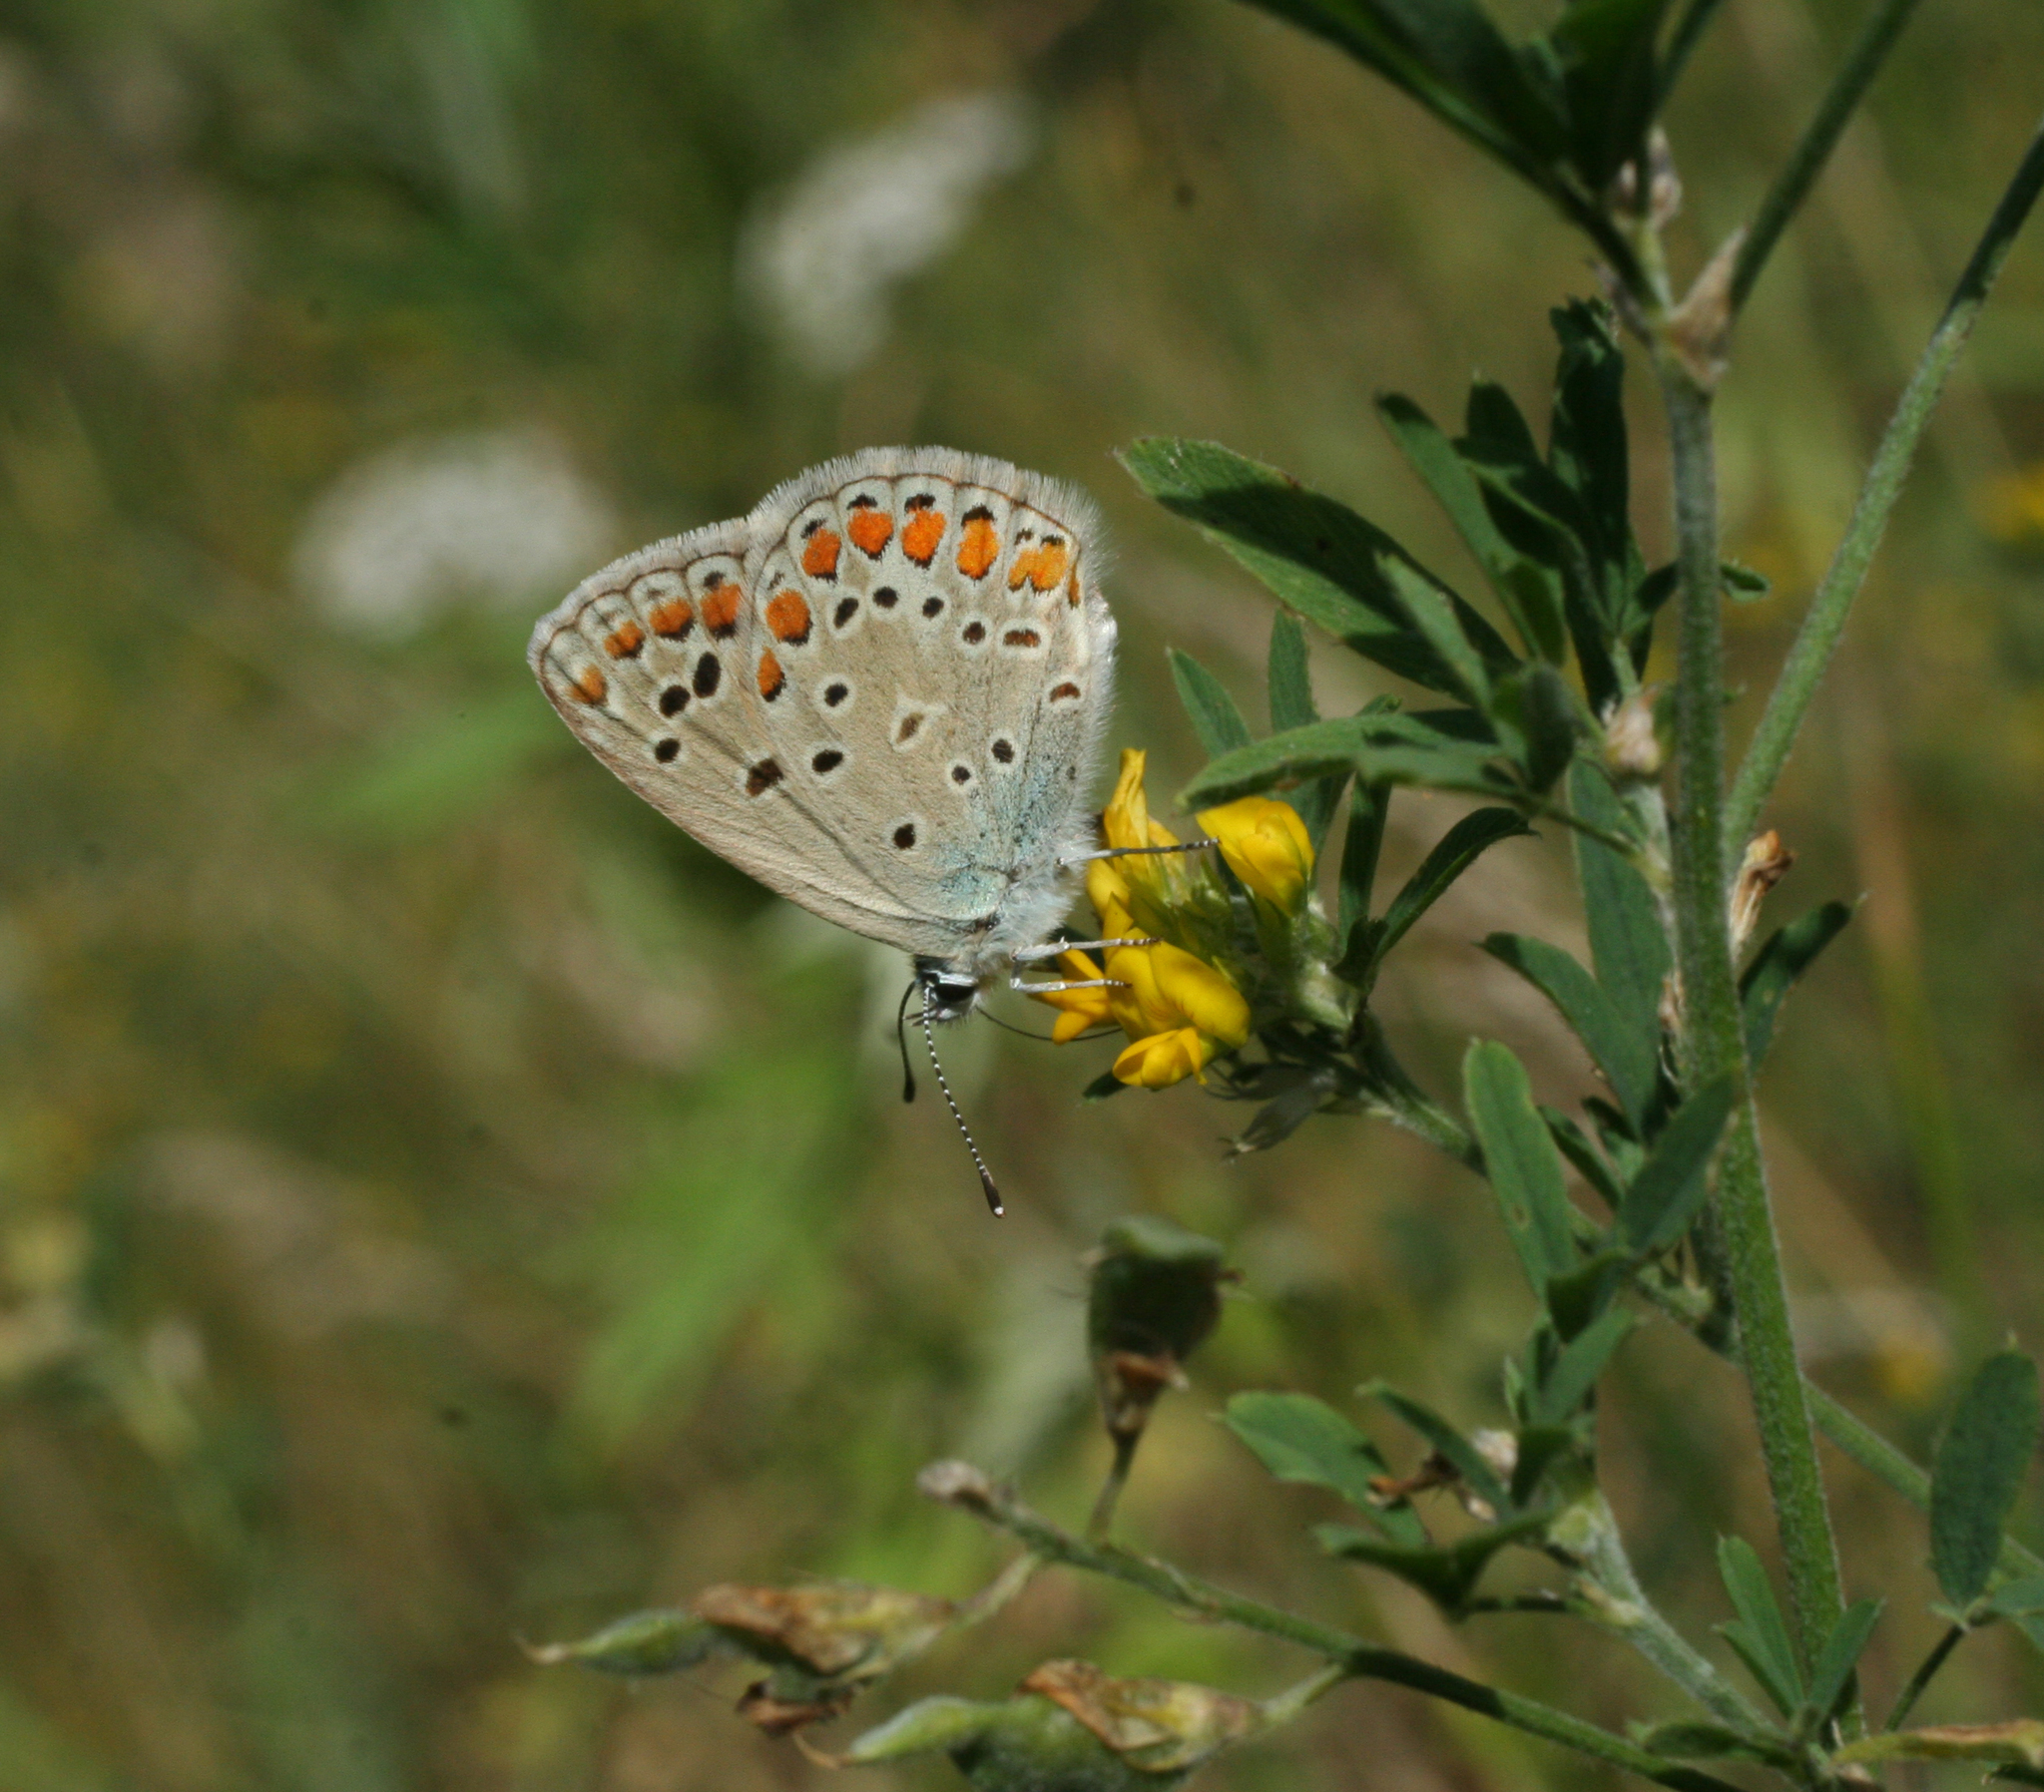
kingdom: Plantae
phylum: Tracheophyta
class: Magnoliopsida
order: Fabales
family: Fabaceae
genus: Medicago
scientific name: Medicago falcata
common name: Sickle medick
